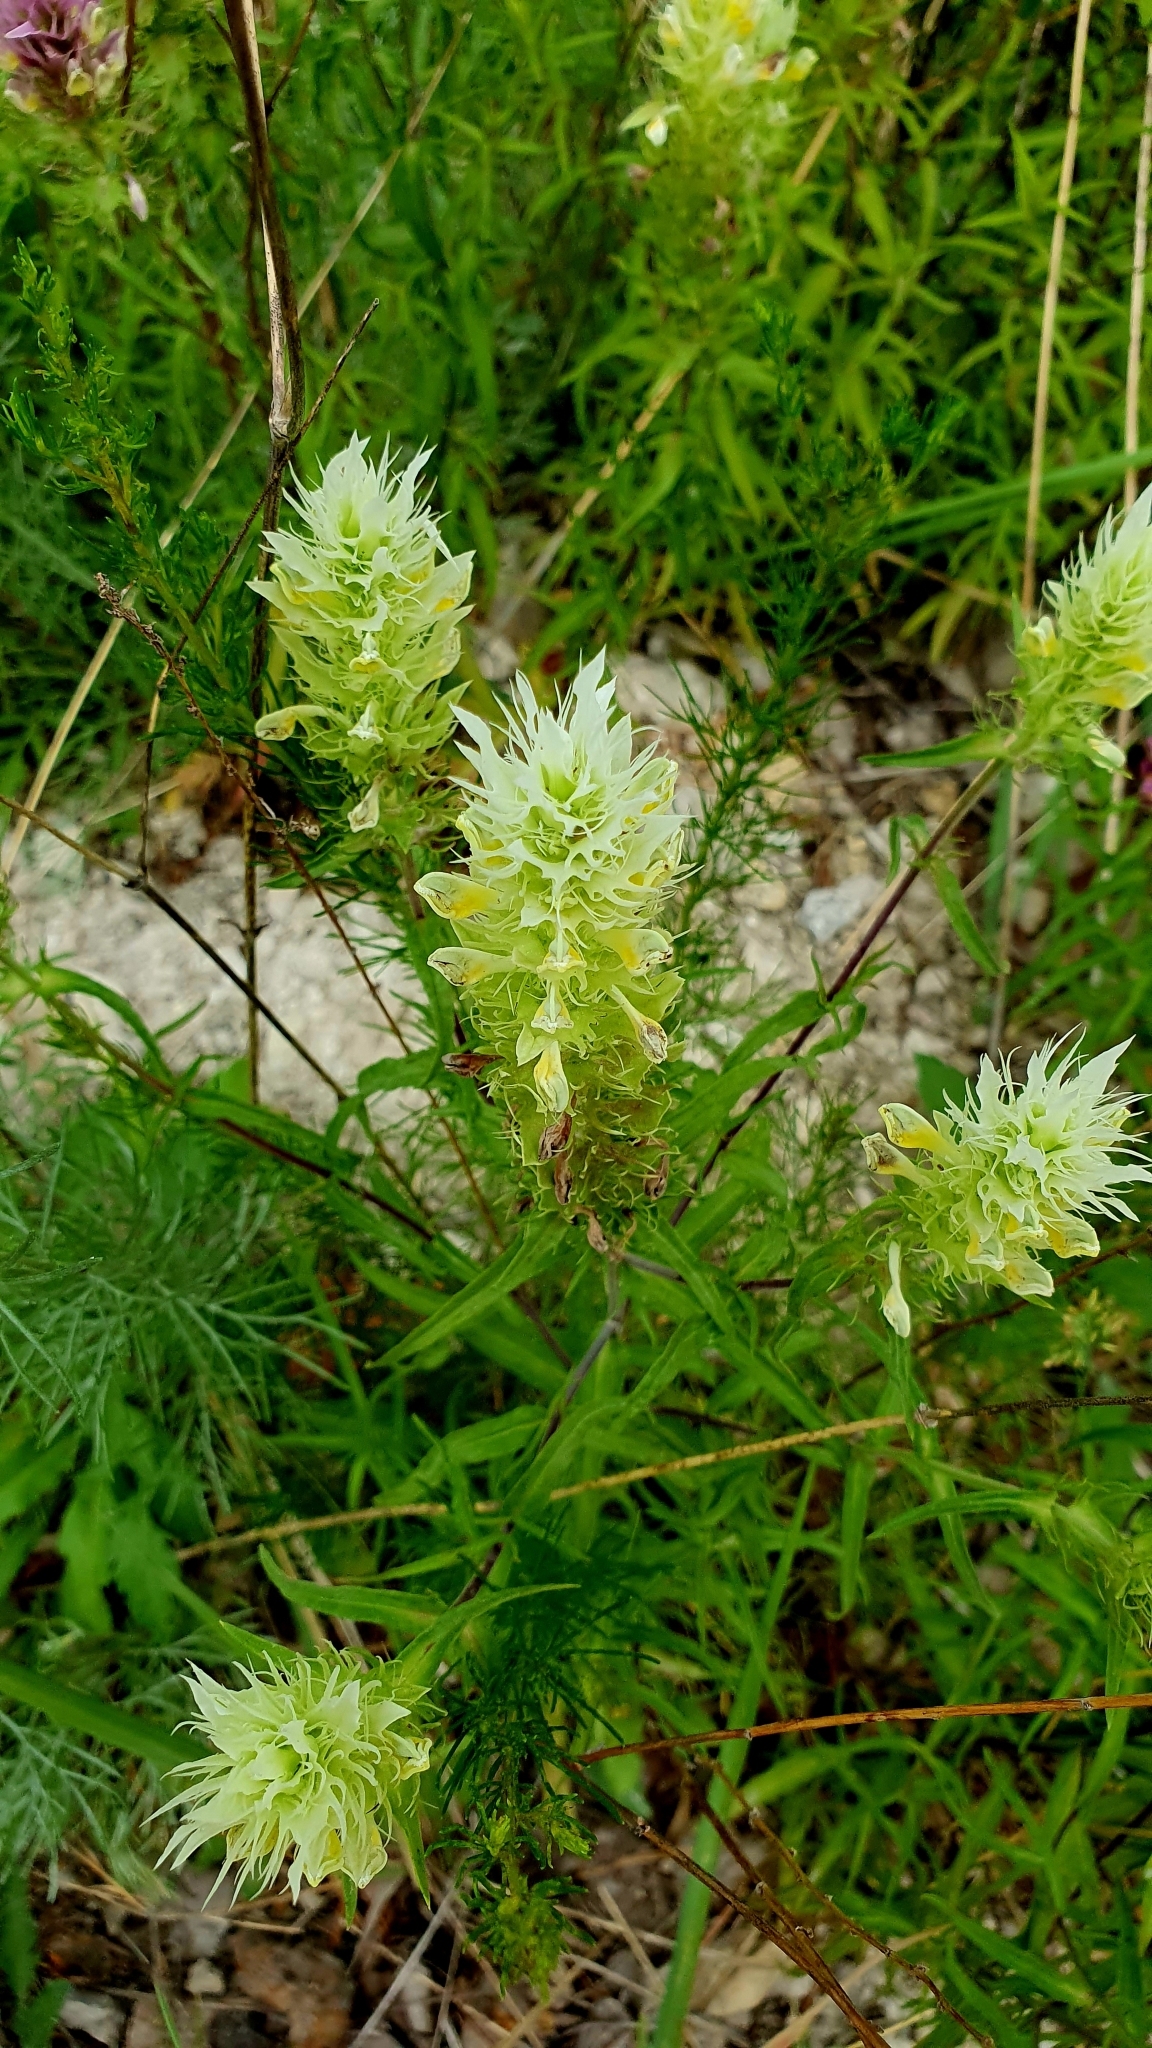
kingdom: Plantae
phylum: Tracheophyta
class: Magnoliopsida
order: Lamiales
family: Orobanchaceae
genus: Melampyrum
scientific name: Melampyrum arvense
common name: Field cow-wheat
